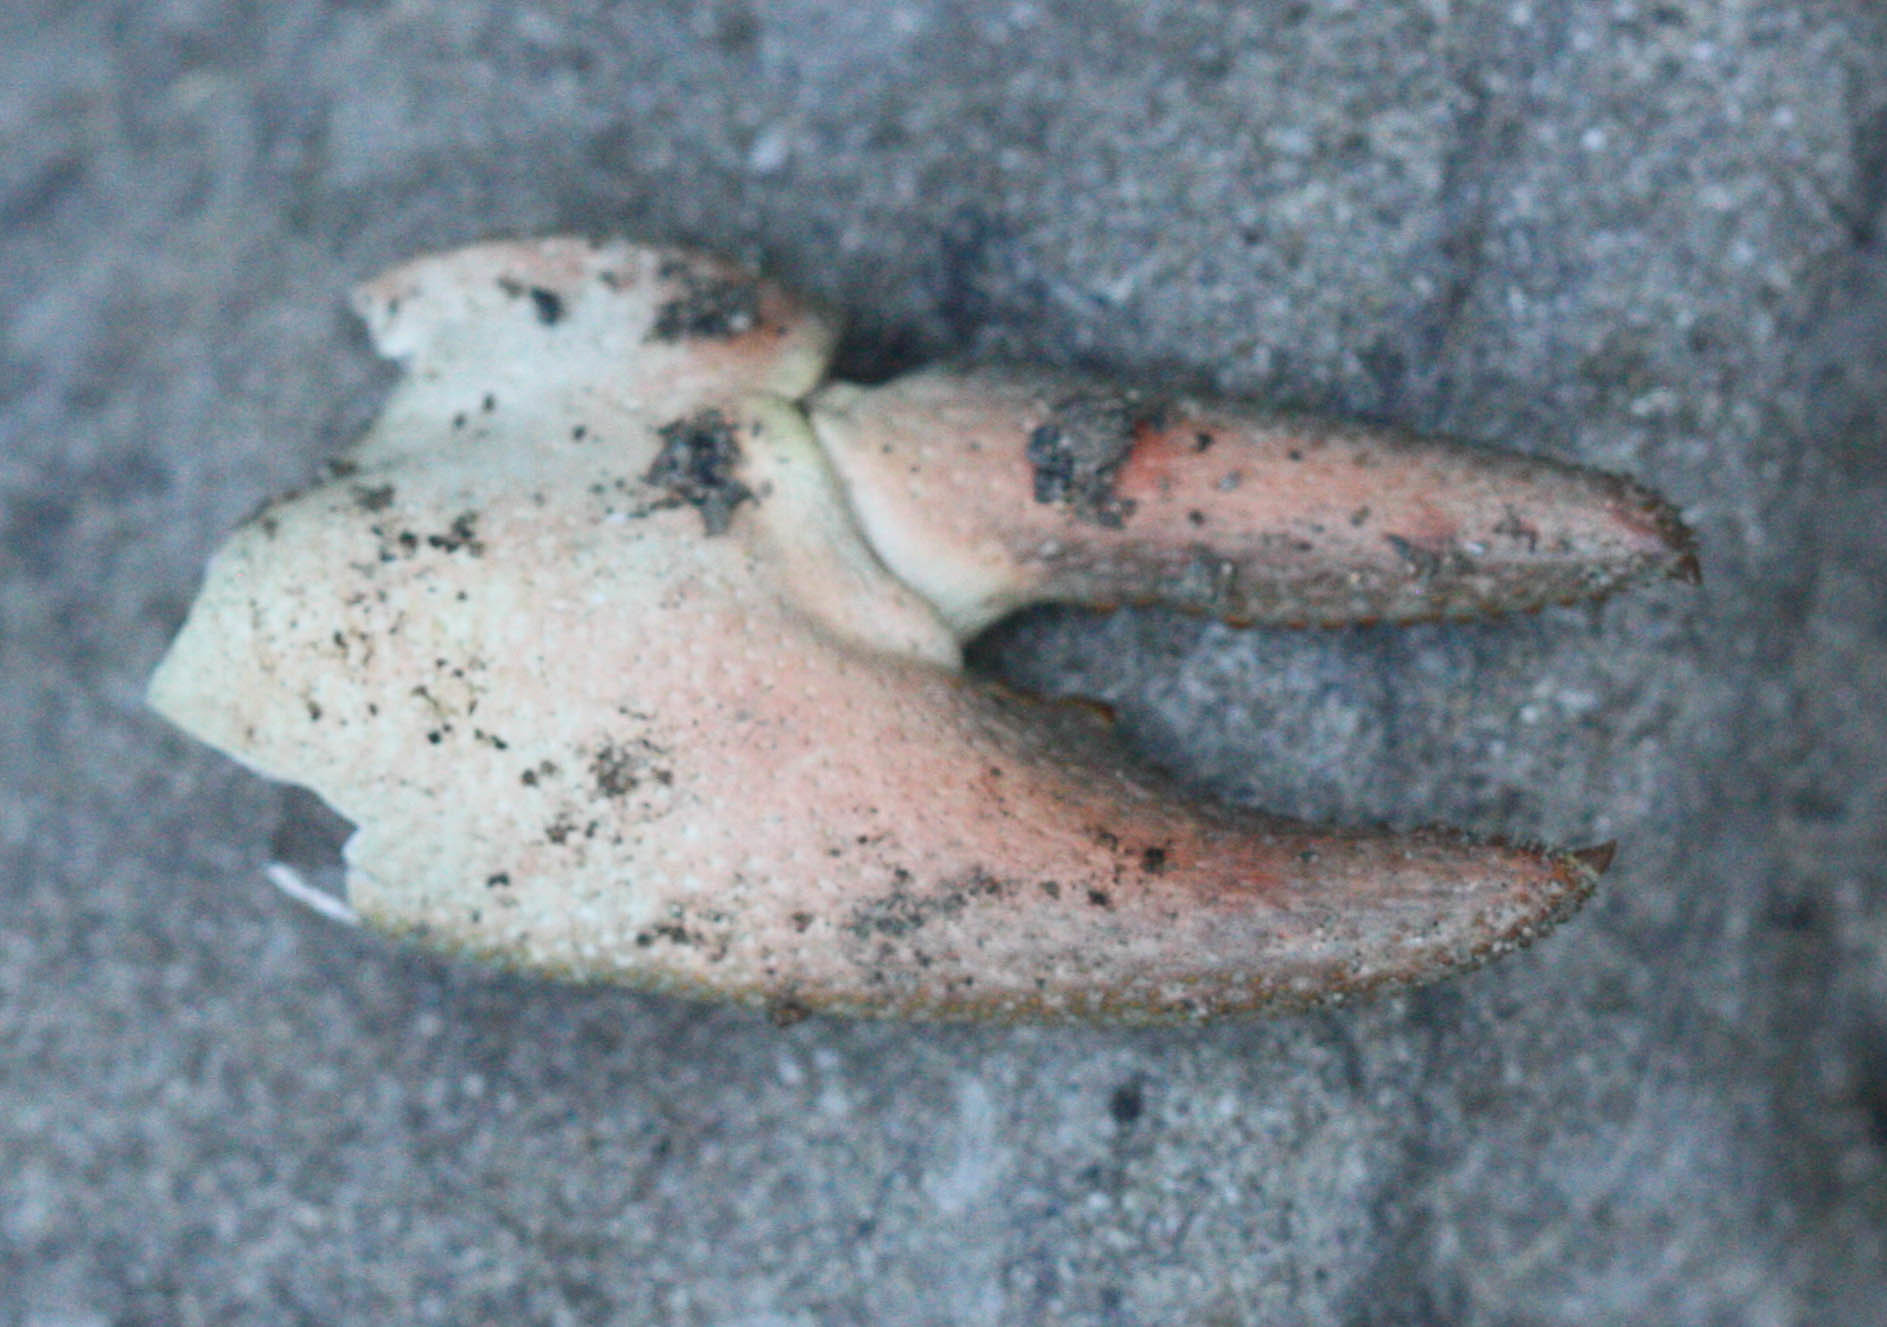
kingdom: Animalia
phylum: Arthropoda
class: Malacostraca
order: Decapoda
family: Astacidae
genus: Pacifastacus
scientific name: Pacifastacus leniusculus
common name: Signal crayfish
